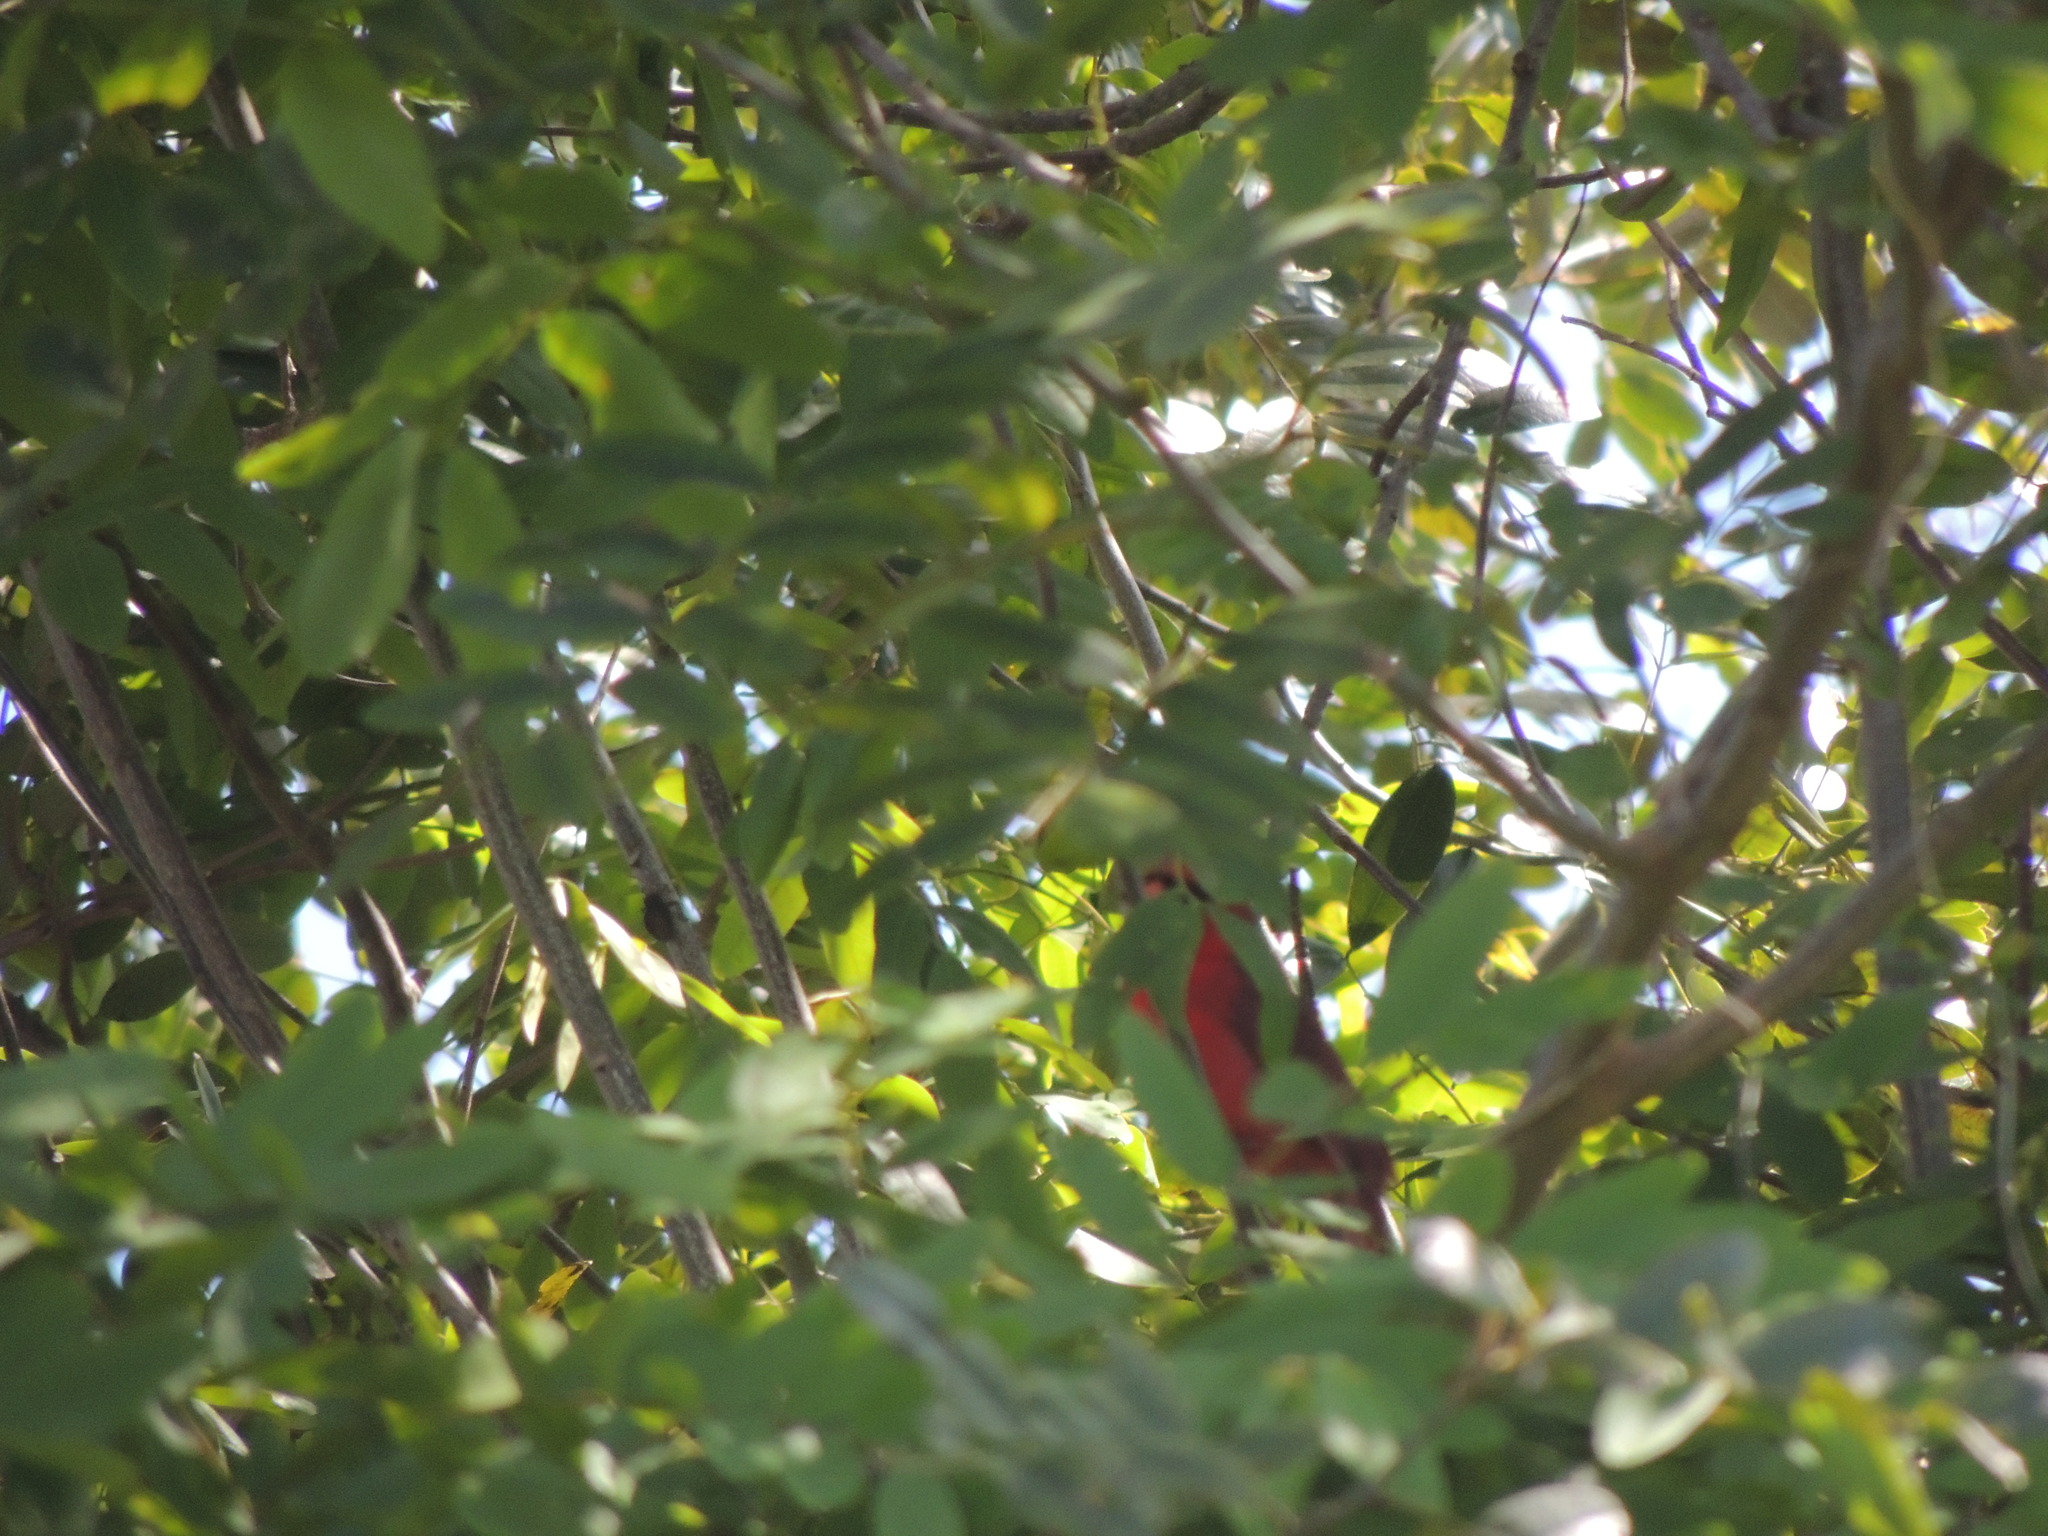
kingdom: Animalia
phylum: Chordata
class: Aves
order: Passeriformes
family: Cardinalidae
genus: Cardinalis
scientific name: Cardinalis cardinalis
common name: Northern cardinal
